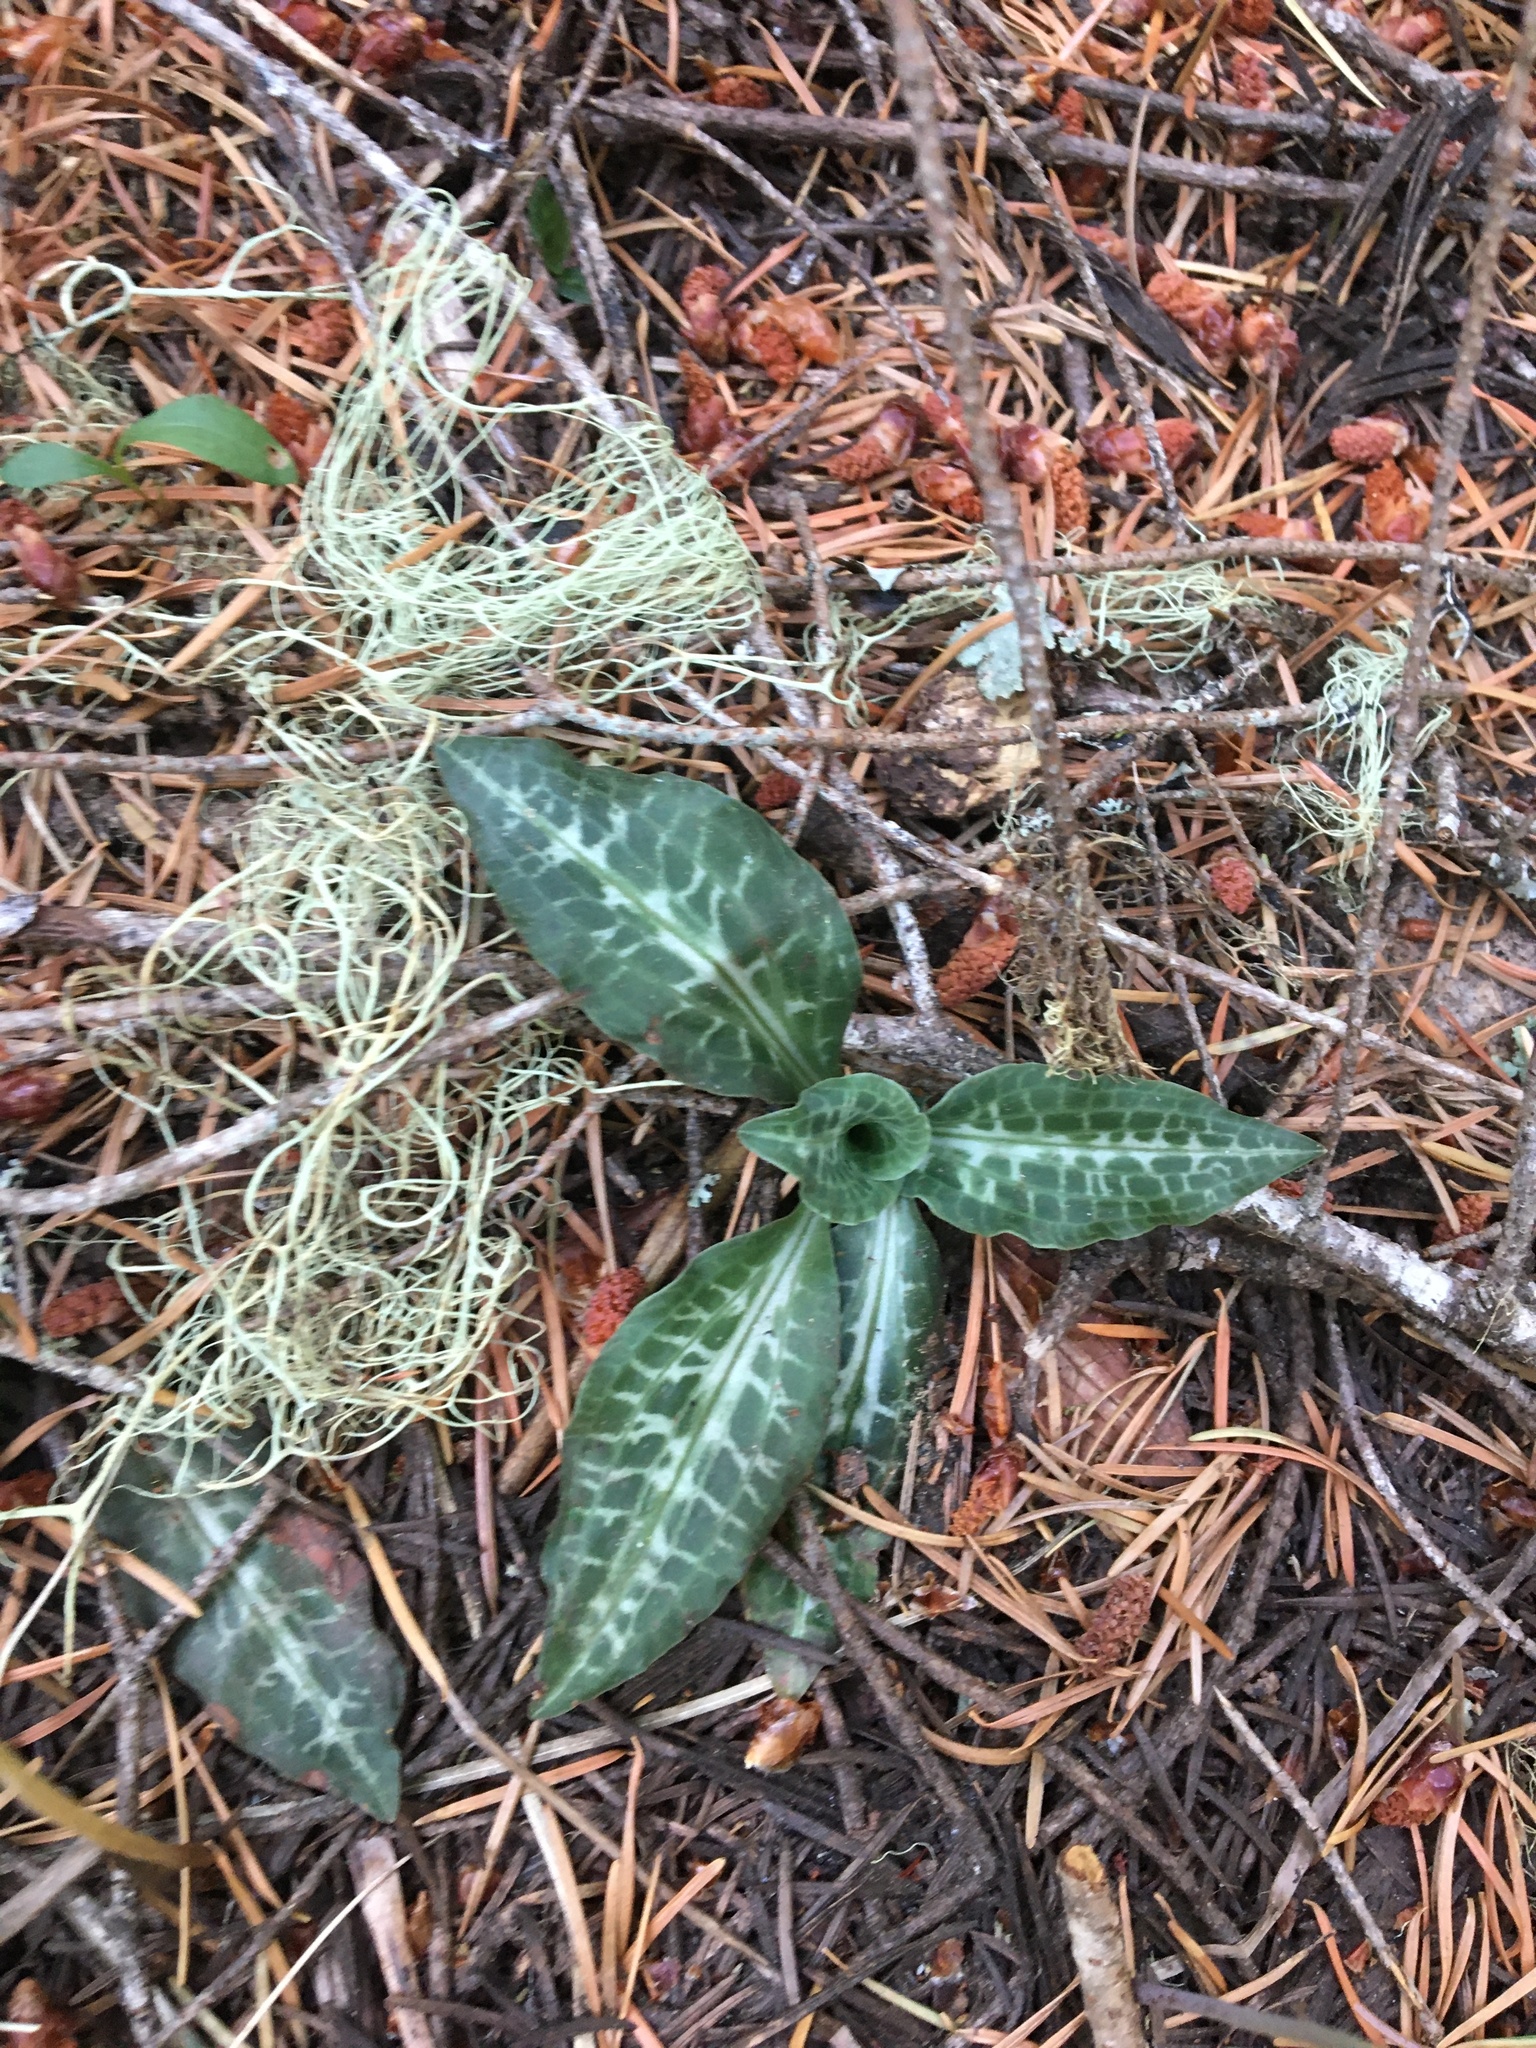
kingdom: Plantae
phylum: Tracheophyta
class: Liliopsida
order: Asparagales
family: Orchidaceae
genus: Goodyera
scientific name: Goodyera oblongifolia
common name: Giant rattlesnake-plantain
